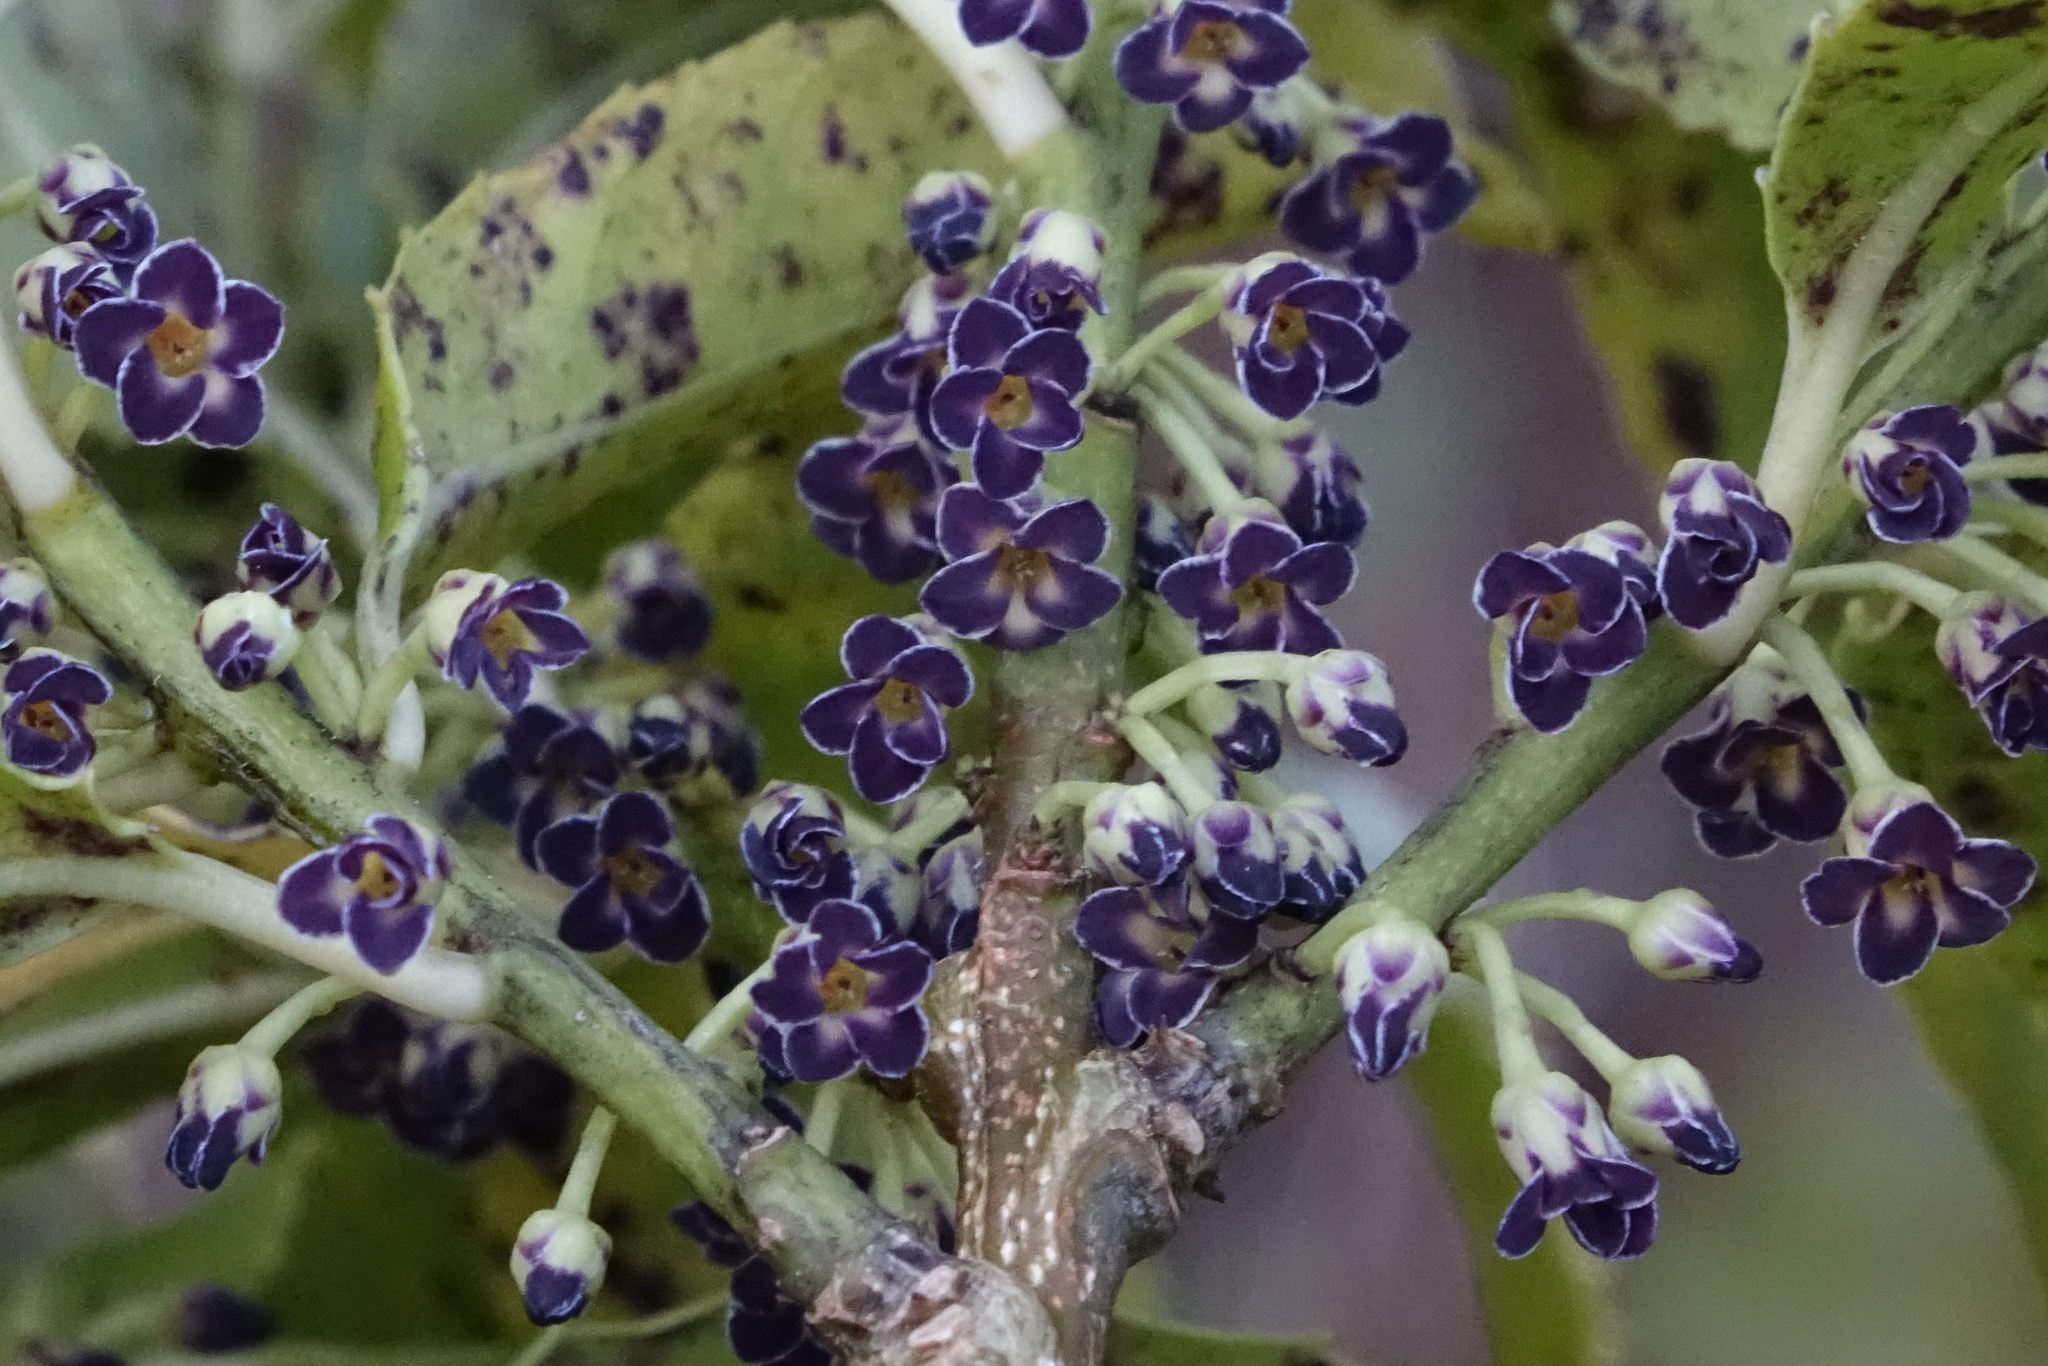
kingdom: Plantae
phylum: Tracheophyta
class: Magnoliopsida
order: Malpighiales
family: Violaceae
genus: Melicytus
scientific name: Melicytus lanceolatus
